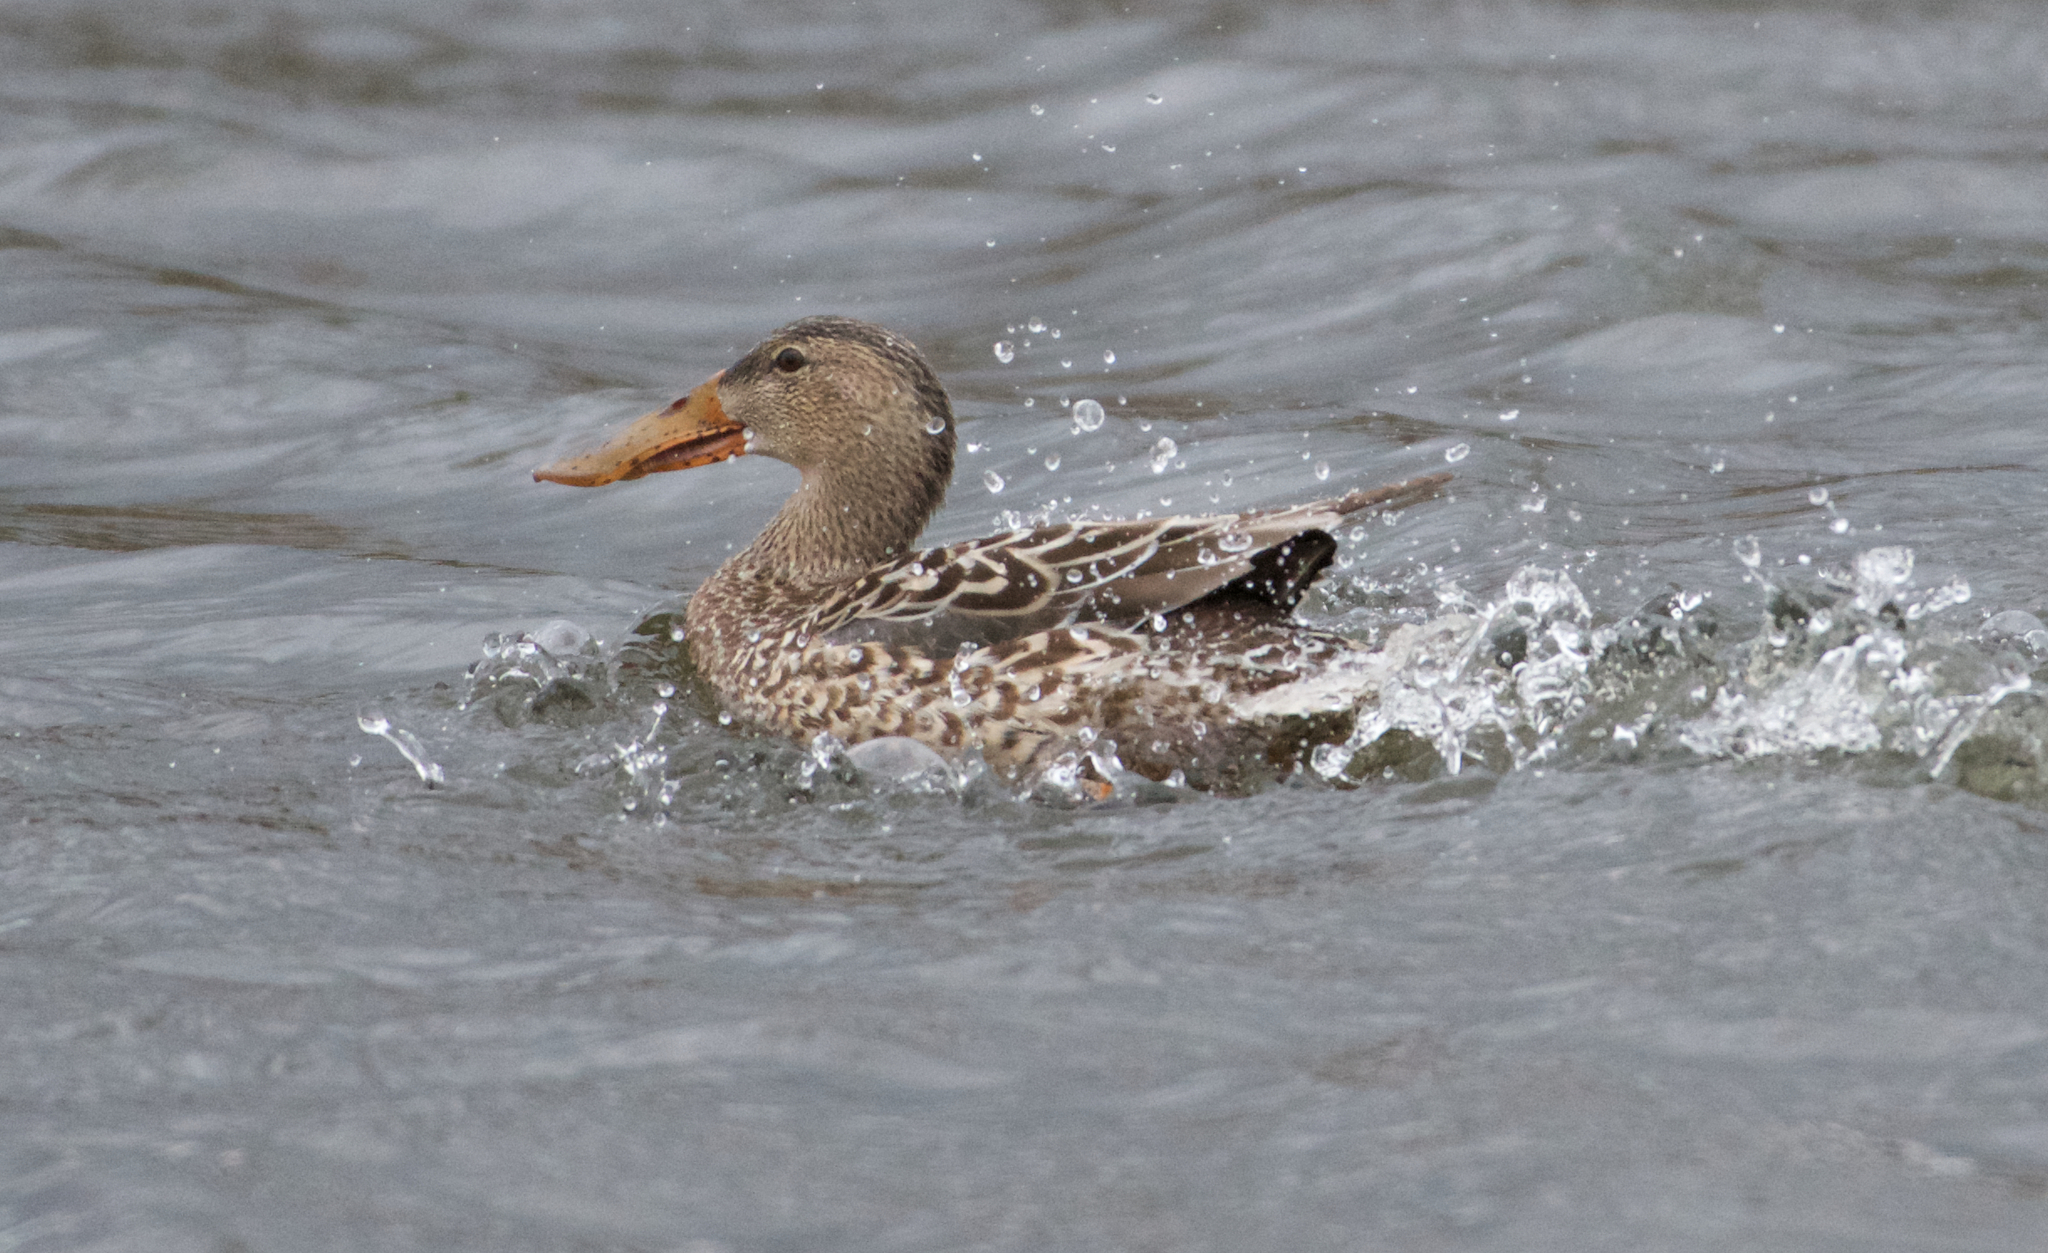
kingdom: Animalia
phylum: Chordata
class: Aves
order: Anseriformes
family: Anatidae
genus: Spatula
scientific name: Spatula clypeata
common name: Northern shoveler
